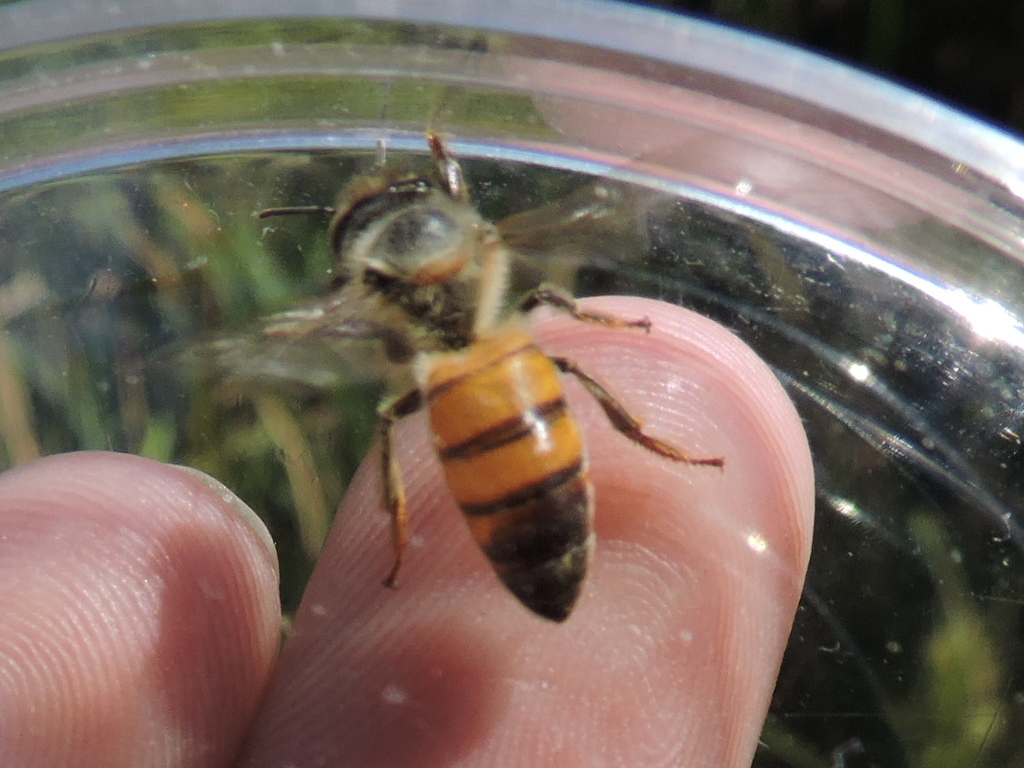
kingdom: Animalia
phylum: Arthropoda
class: Insecta
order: Hymenoptera
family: Apidae
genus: Apis
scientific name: Apis mellifera
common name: Honey bee
